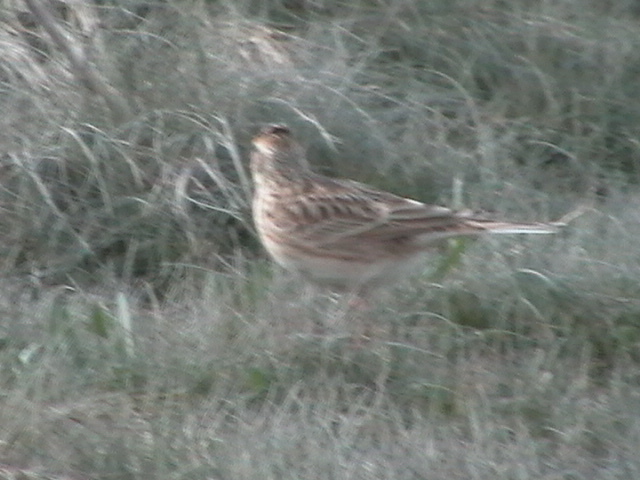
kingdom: Animalia
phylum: Chordata
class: Aves
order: Passeriformes
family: Alaudidae
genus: Alauda
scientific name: Alauda arvensis
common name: Eurasian skylark
